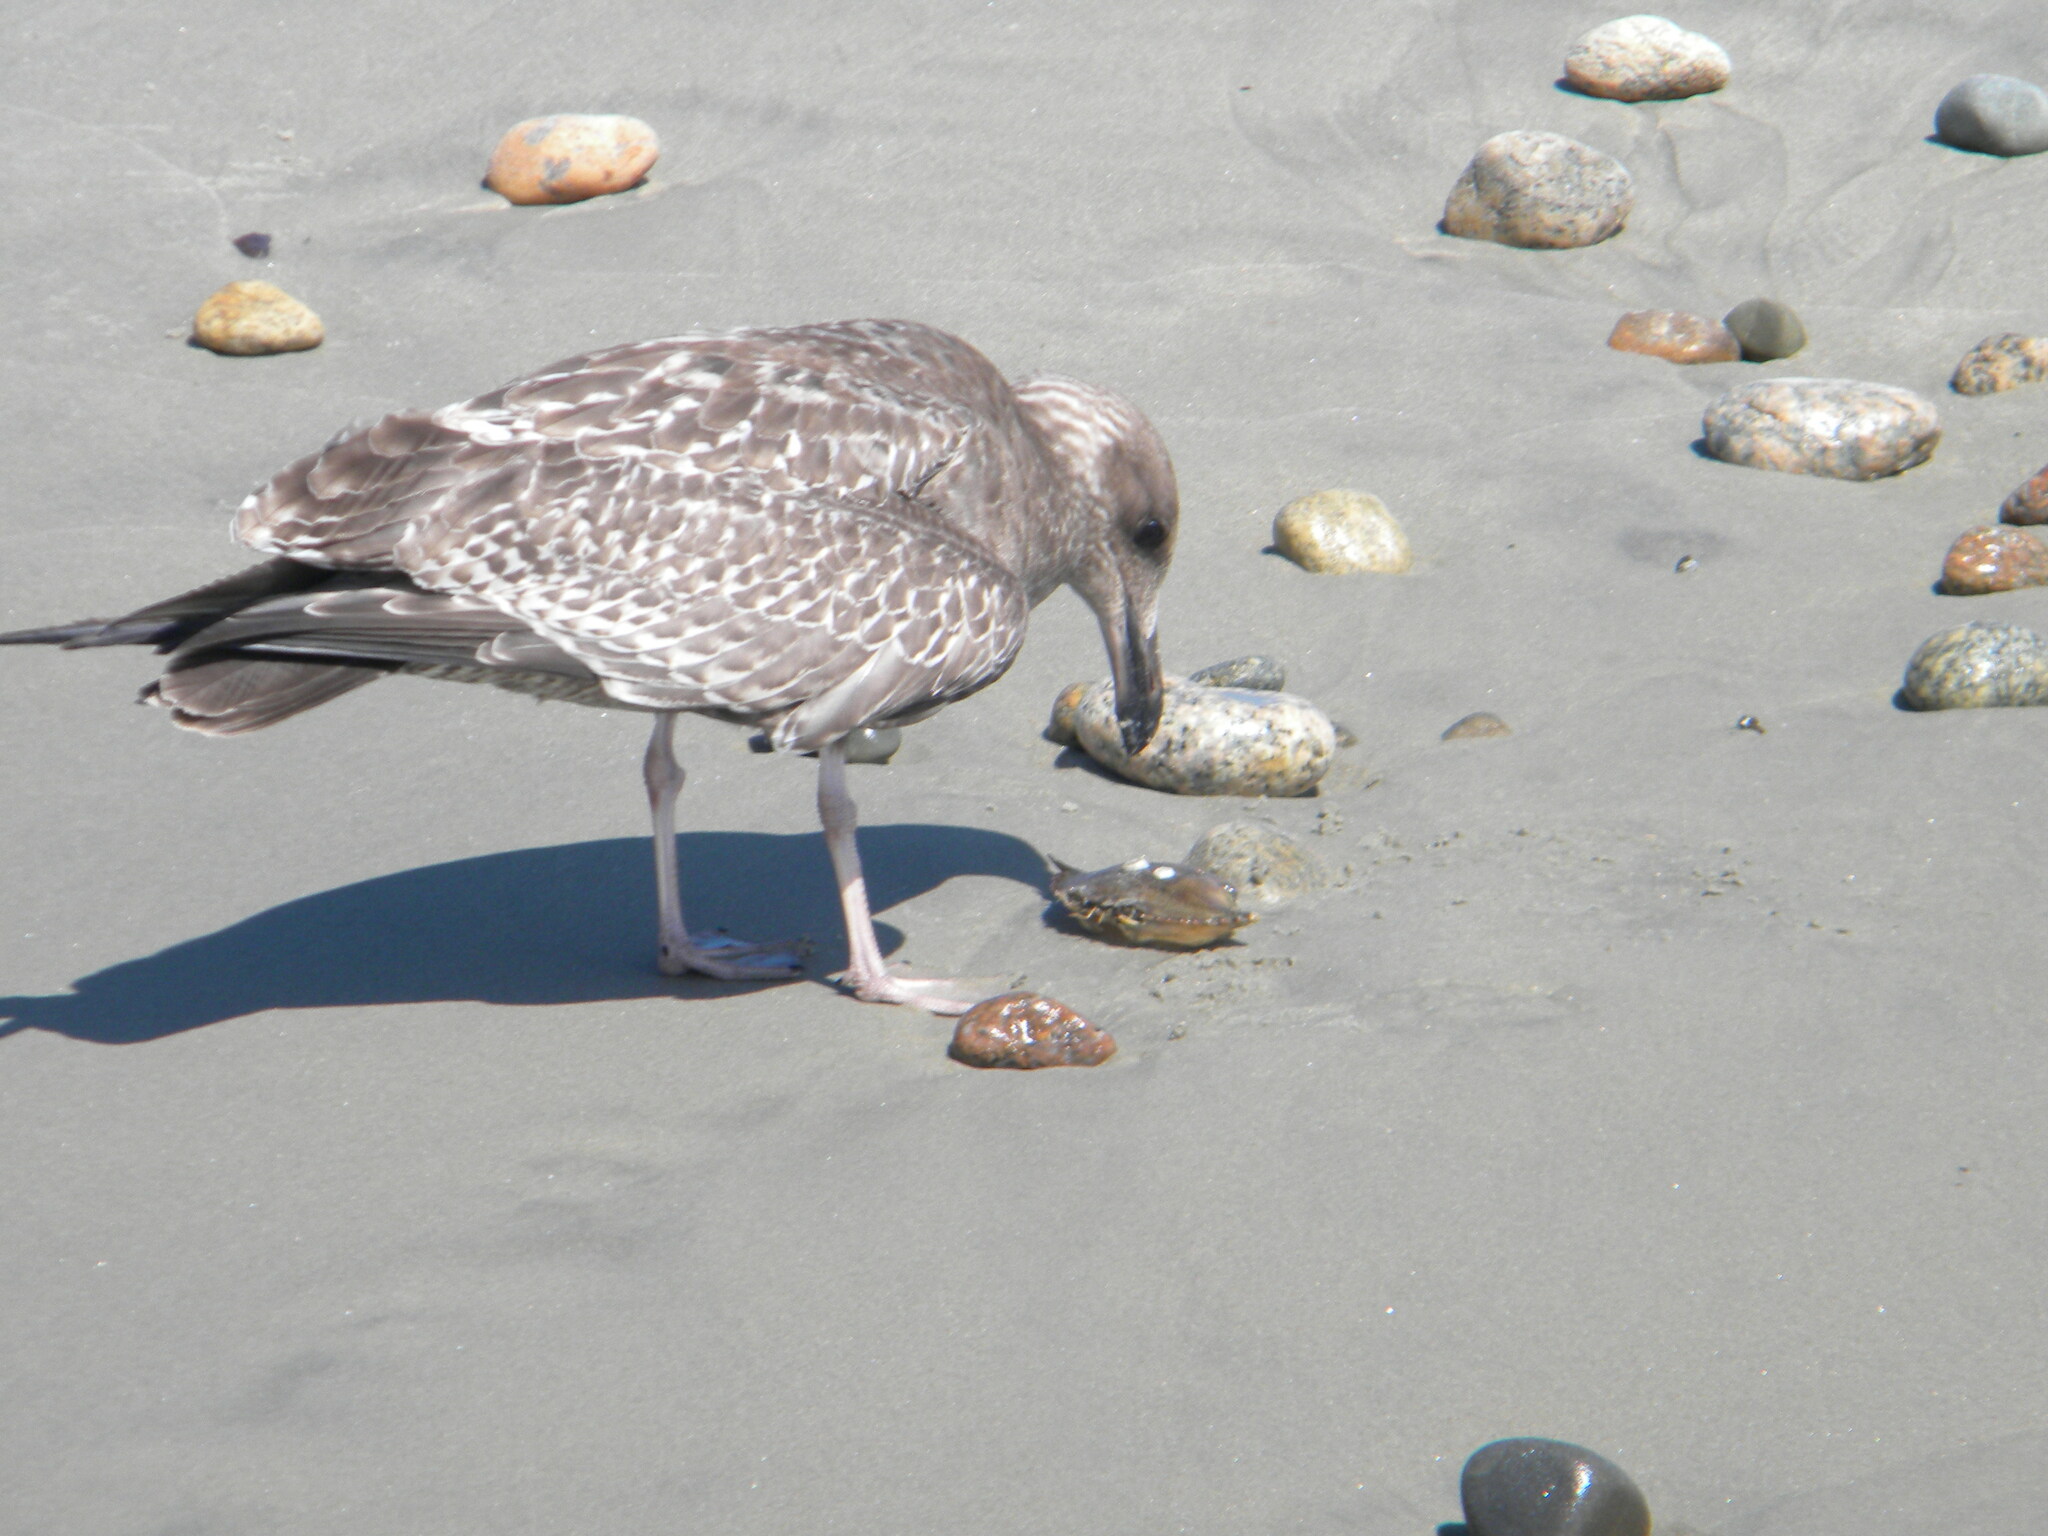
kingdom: Animalia
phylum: Chordata
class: Aves
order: Charadriiformes
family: Laridae
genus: Larus
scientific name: Larus argentatus
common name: Herring gull
